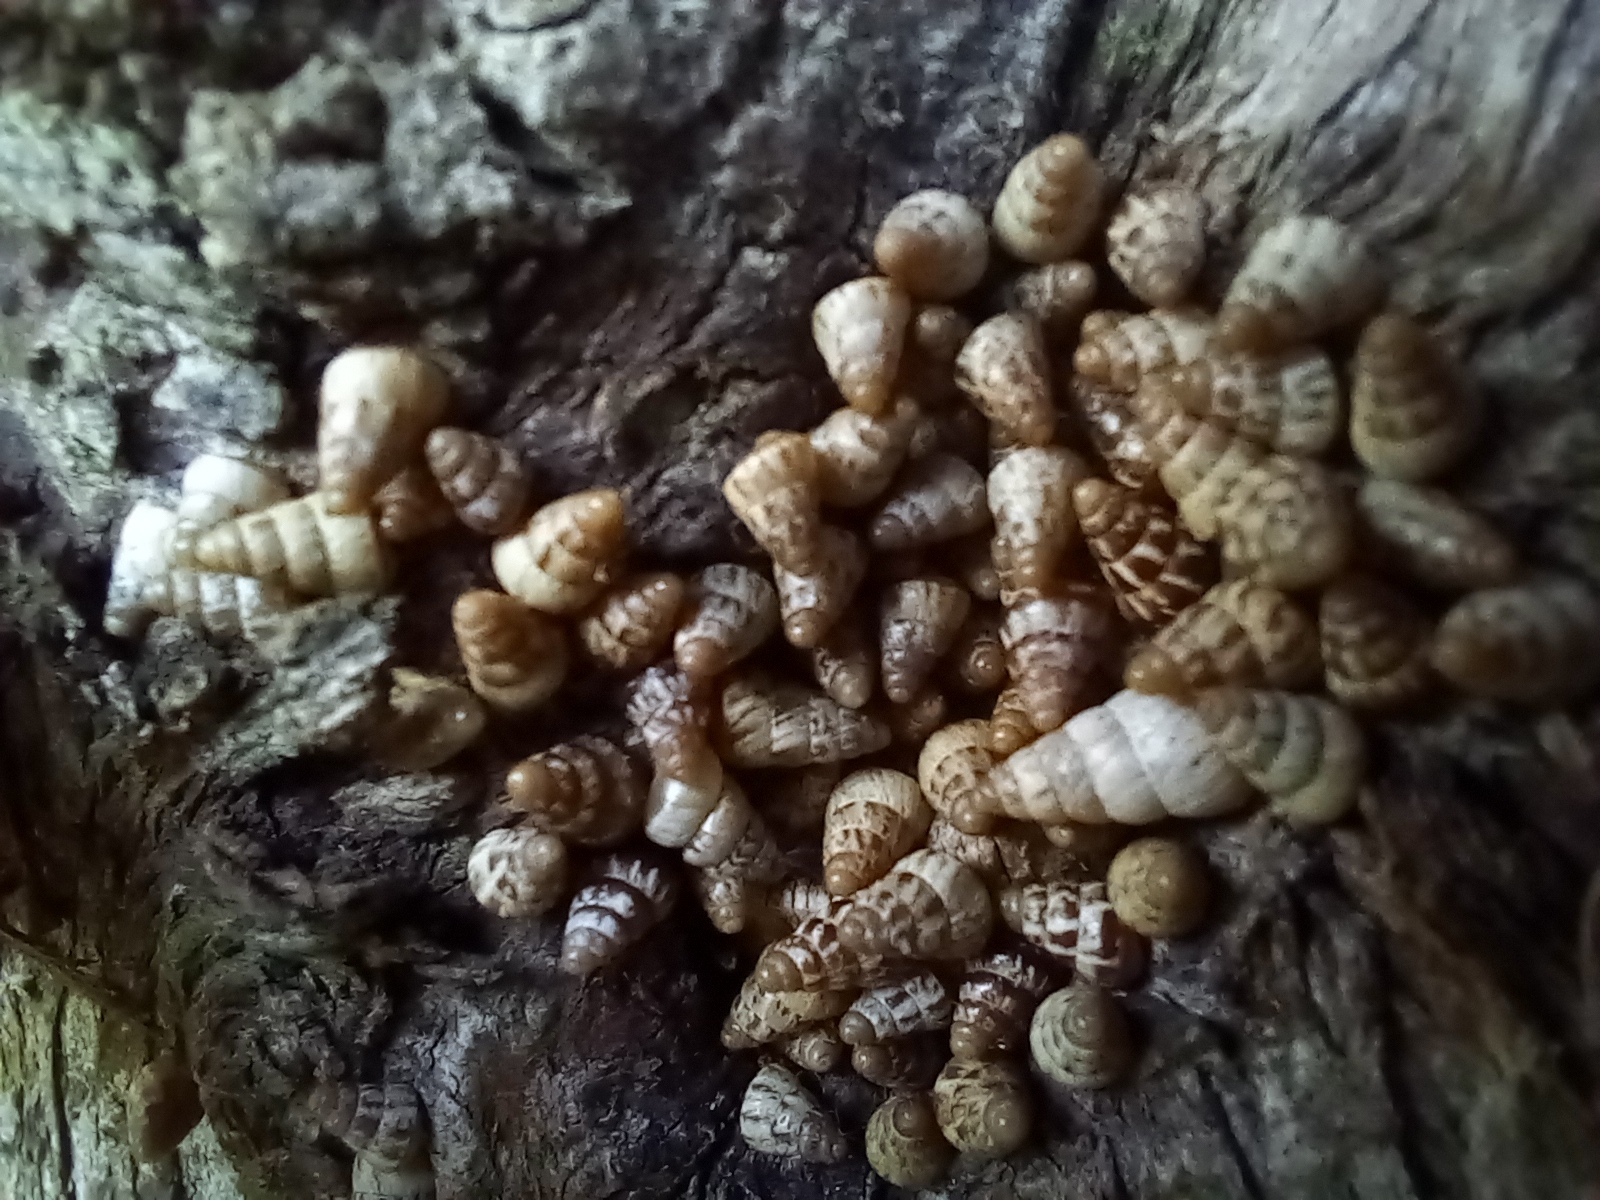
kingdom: Animalia
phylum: Mollusca
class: Gastropoda
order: Stylommatophora
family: Geomitridae
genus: Cochlicella
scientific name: Cochlicella acuta
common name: Pointed snail
